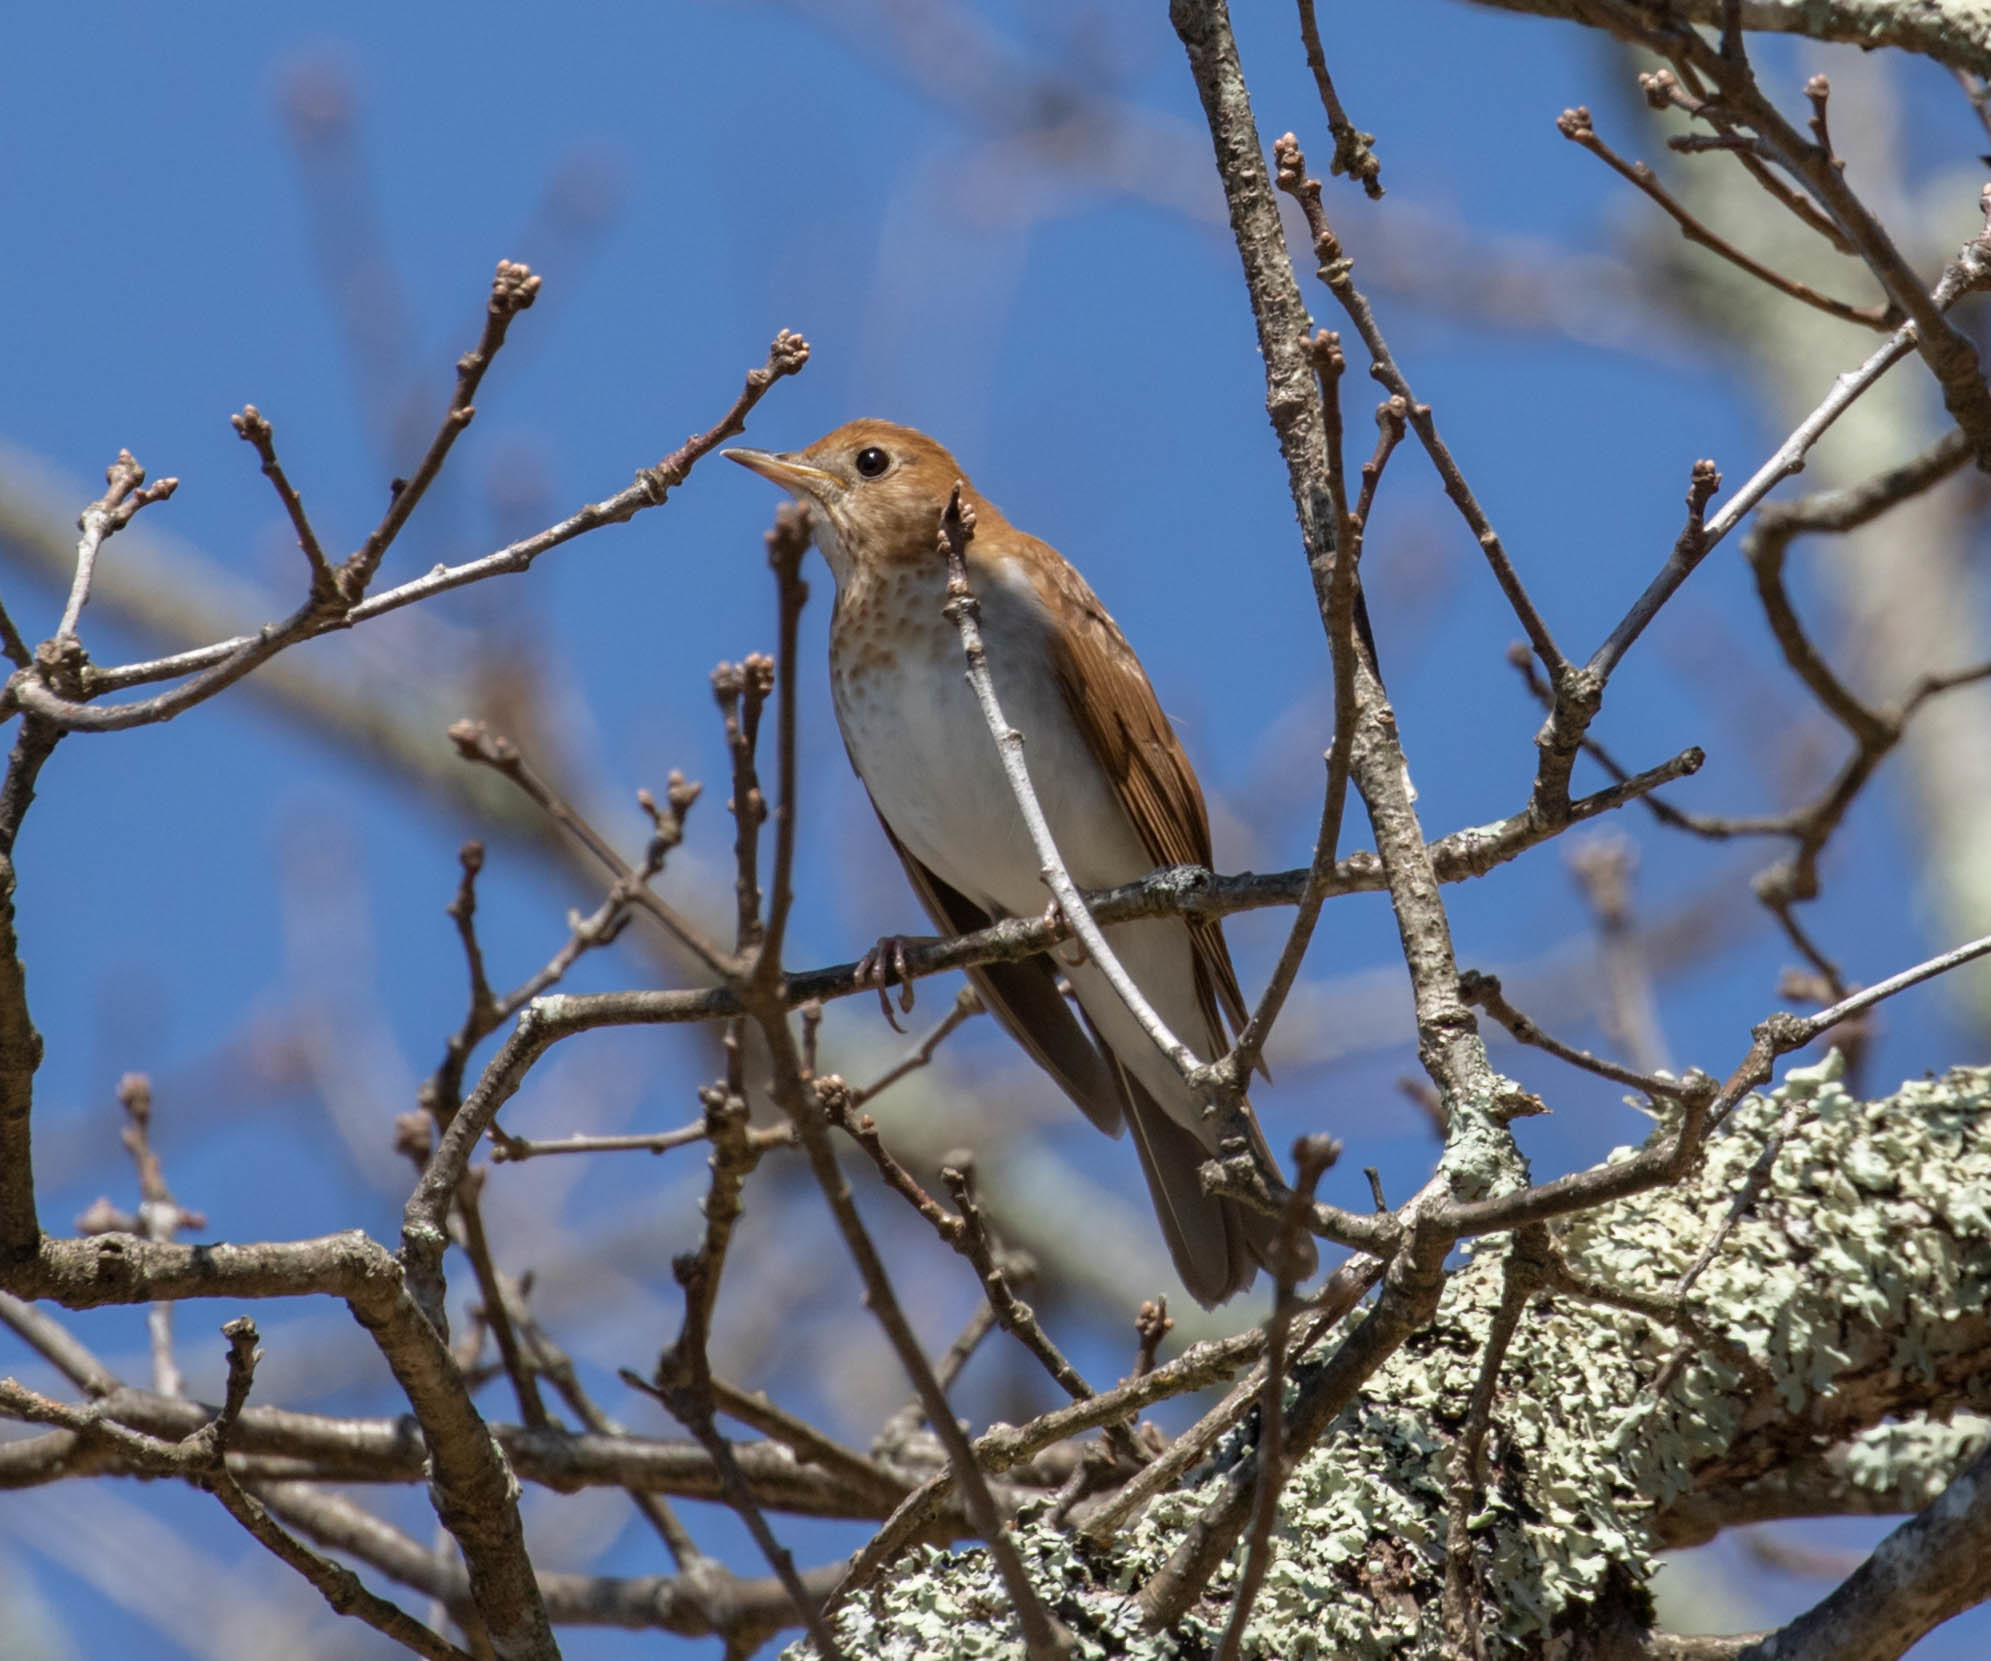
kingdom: Animalia
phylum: Chordata
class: Aves
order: Passeriformes
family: Turdidae
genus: Catharus
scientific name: Catharus fuscescens
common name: Veery
